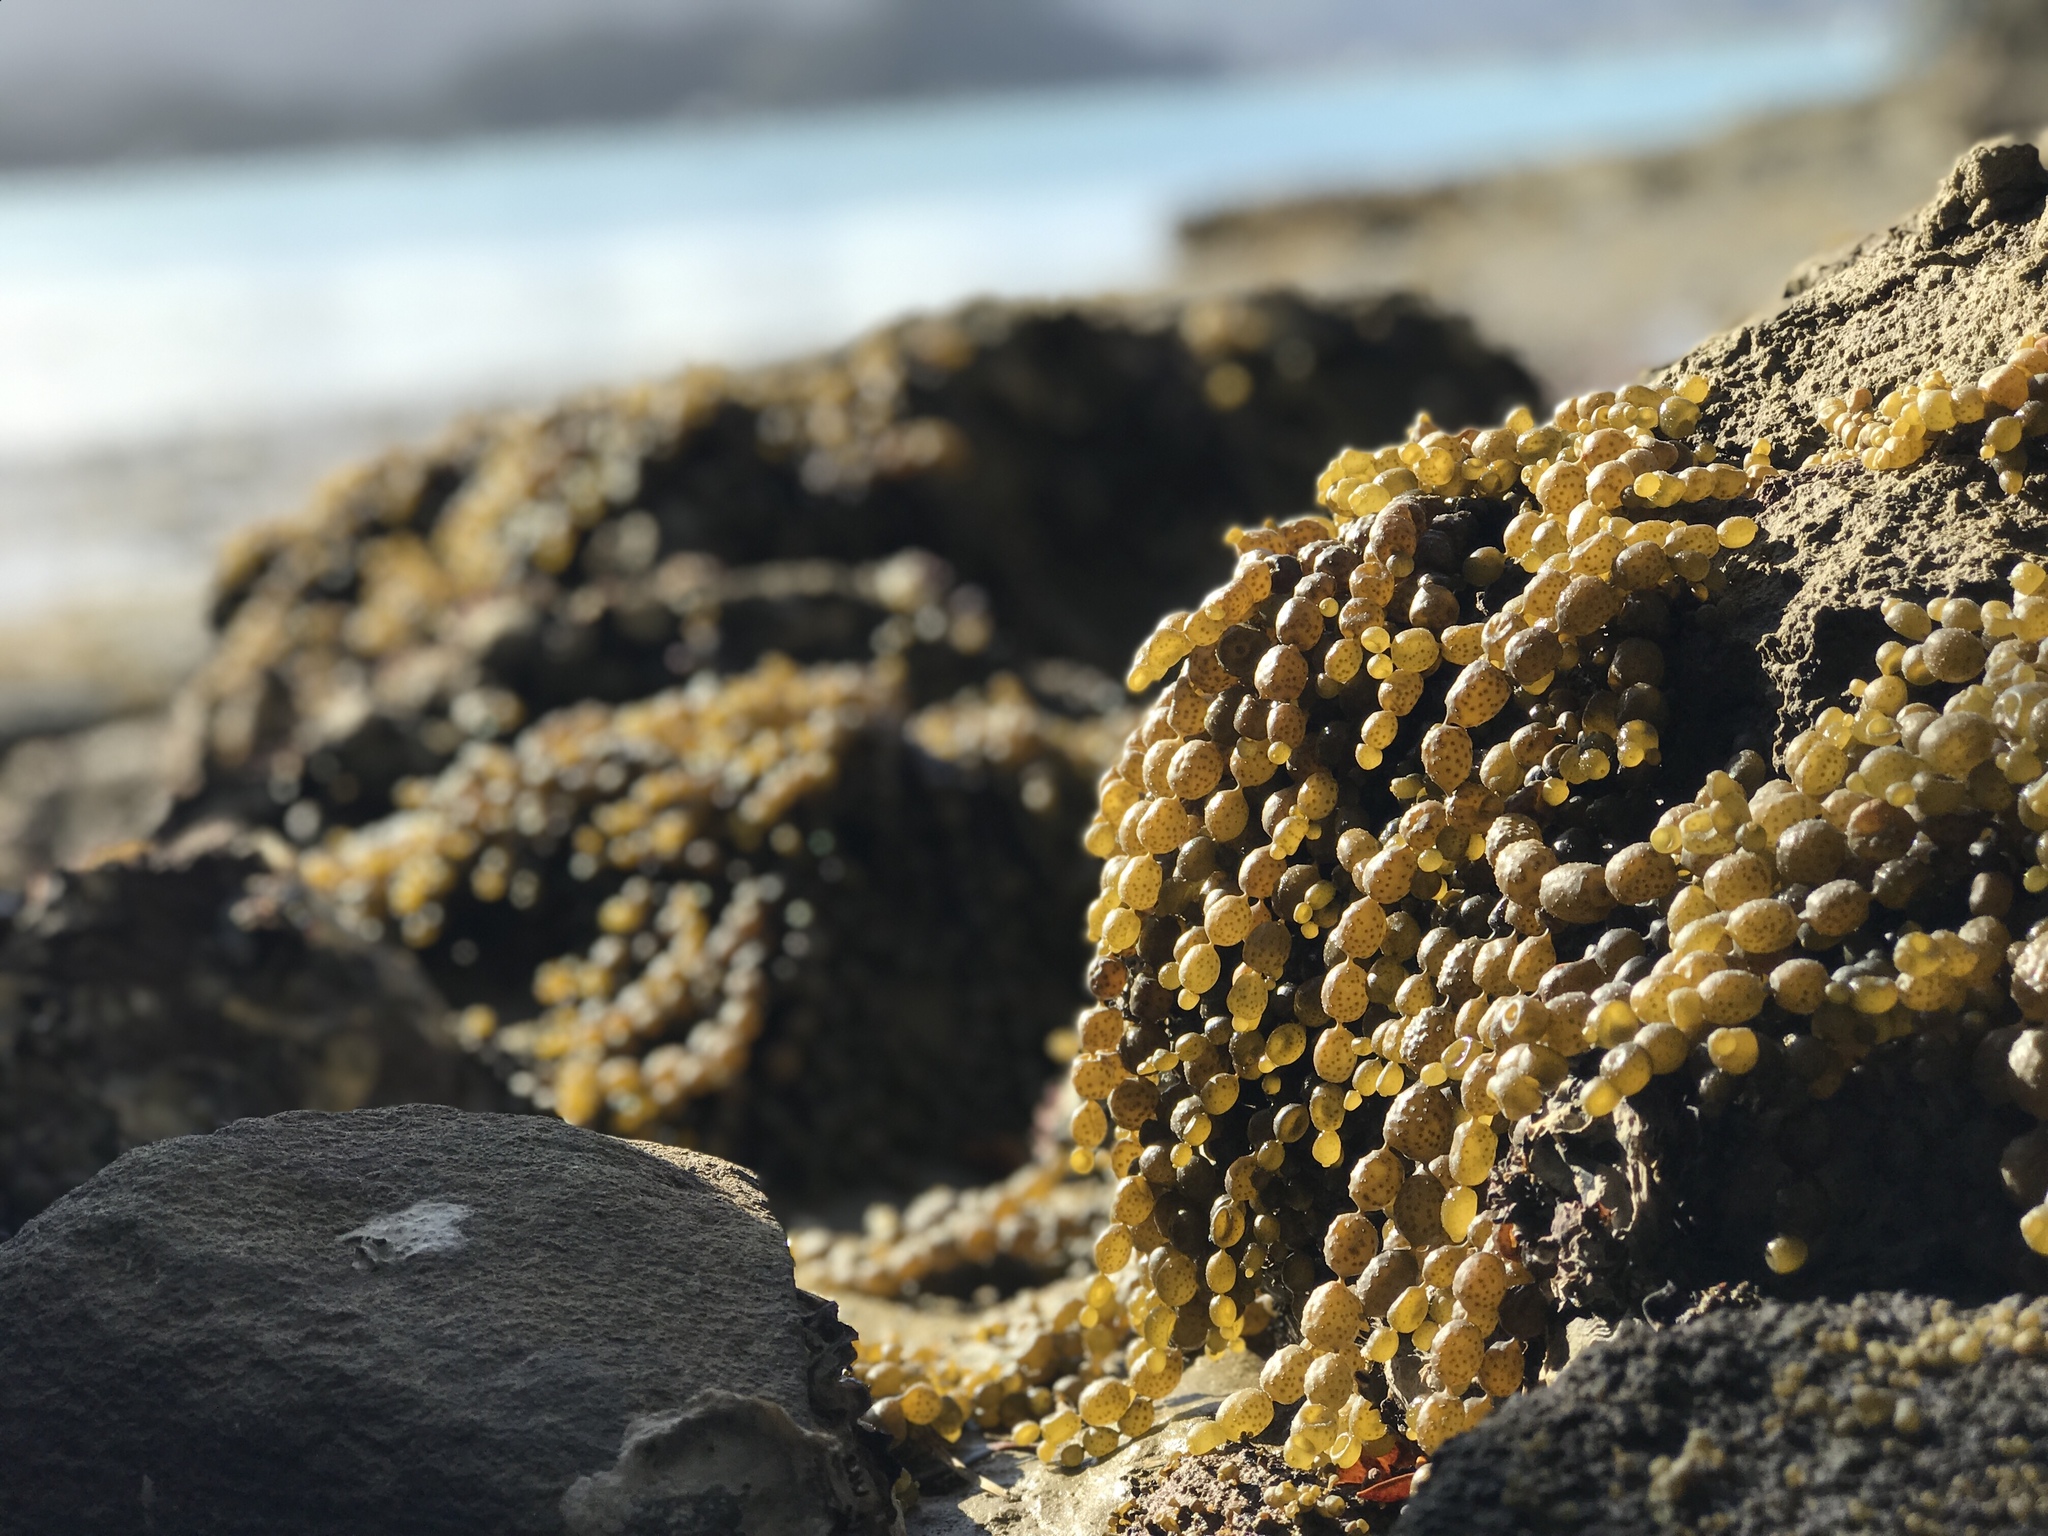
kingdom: Chromista
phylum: Ochrophyta
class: Phaeophyceae
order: Fucales
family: Hormosiraceae
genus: Hormosira
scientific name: Hormosira banksii
